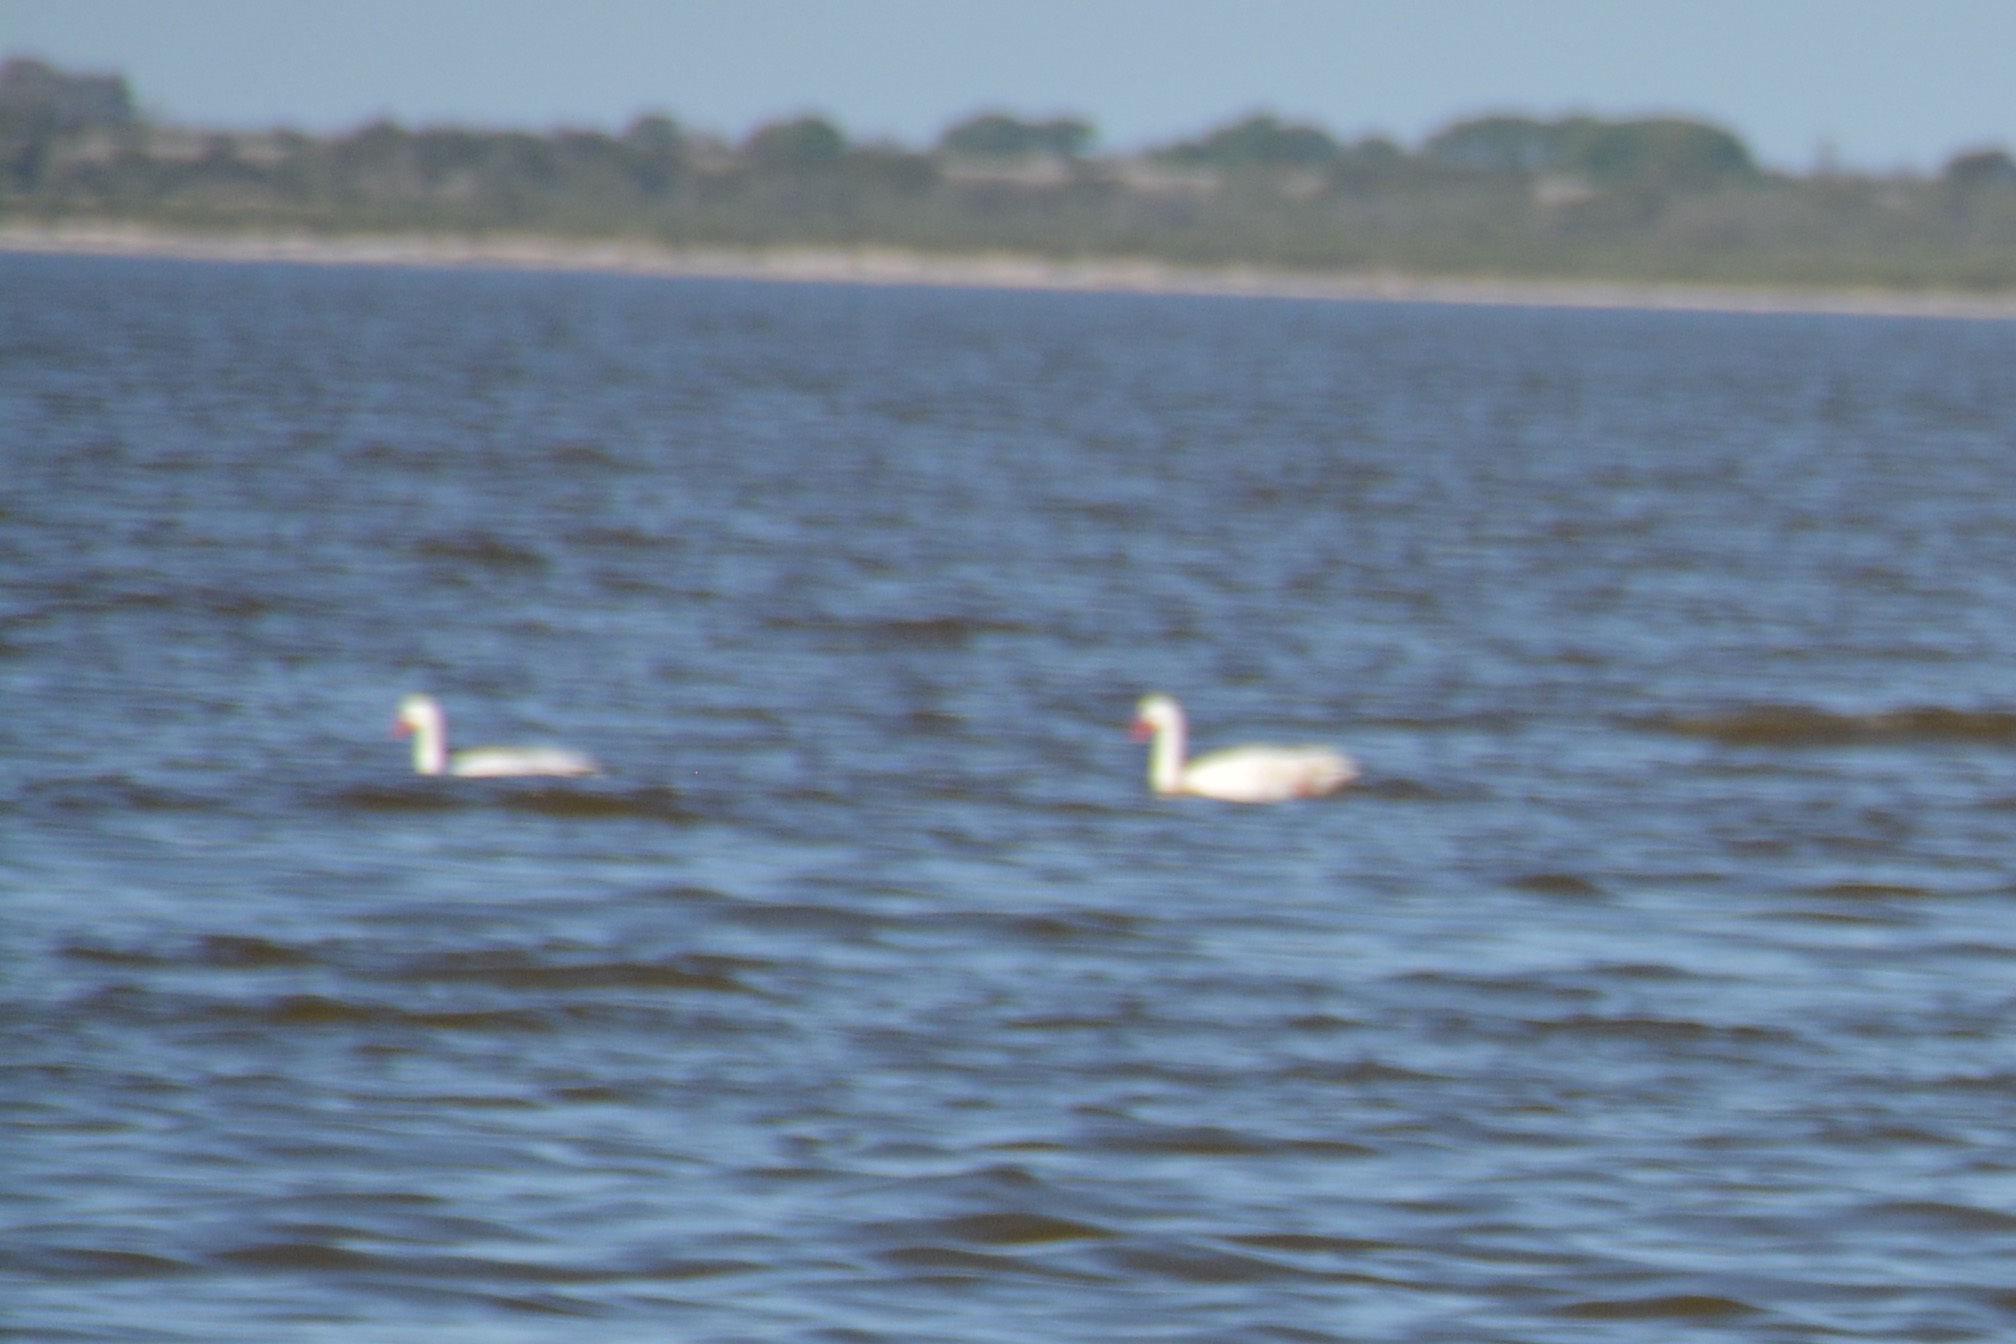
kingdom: Animalia
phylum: Chordata
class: Aves
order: Anseriformes
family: Anatidae
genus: Coscoroba
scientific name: Coscoroba coscoroba
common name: Coscoroba swan
